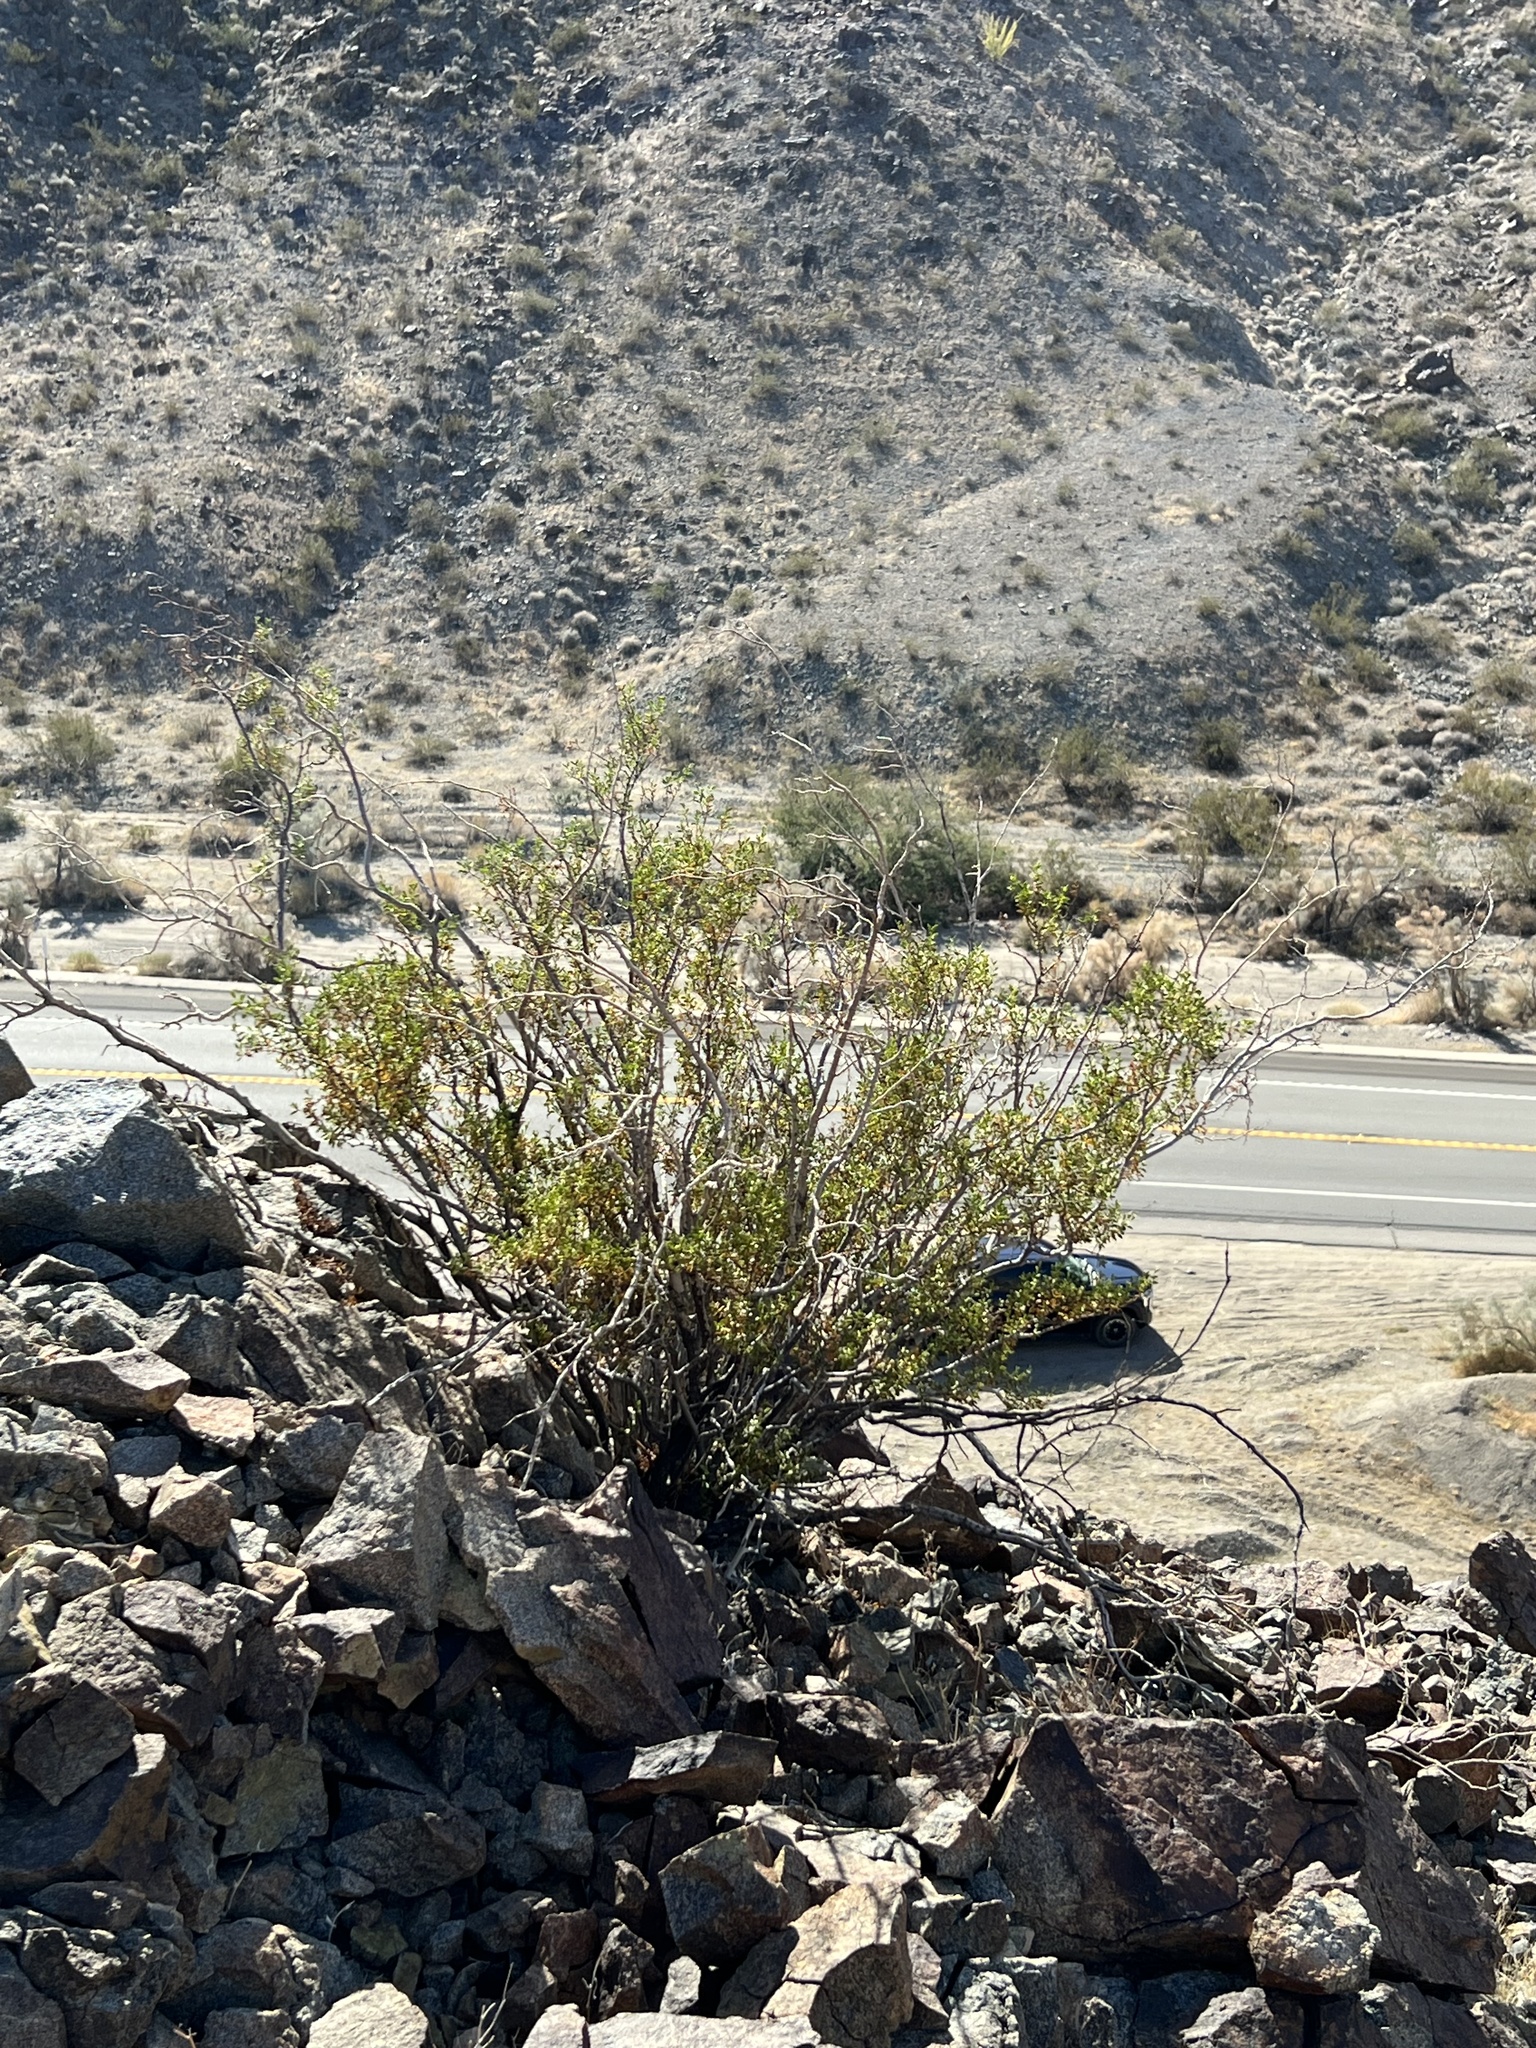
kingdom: Plantae
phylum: Tracheophyta
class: Magnoliopsida
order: Zygophyllales
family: Zygophyllaceae
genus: Larrea
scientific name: Larrea tridentata
